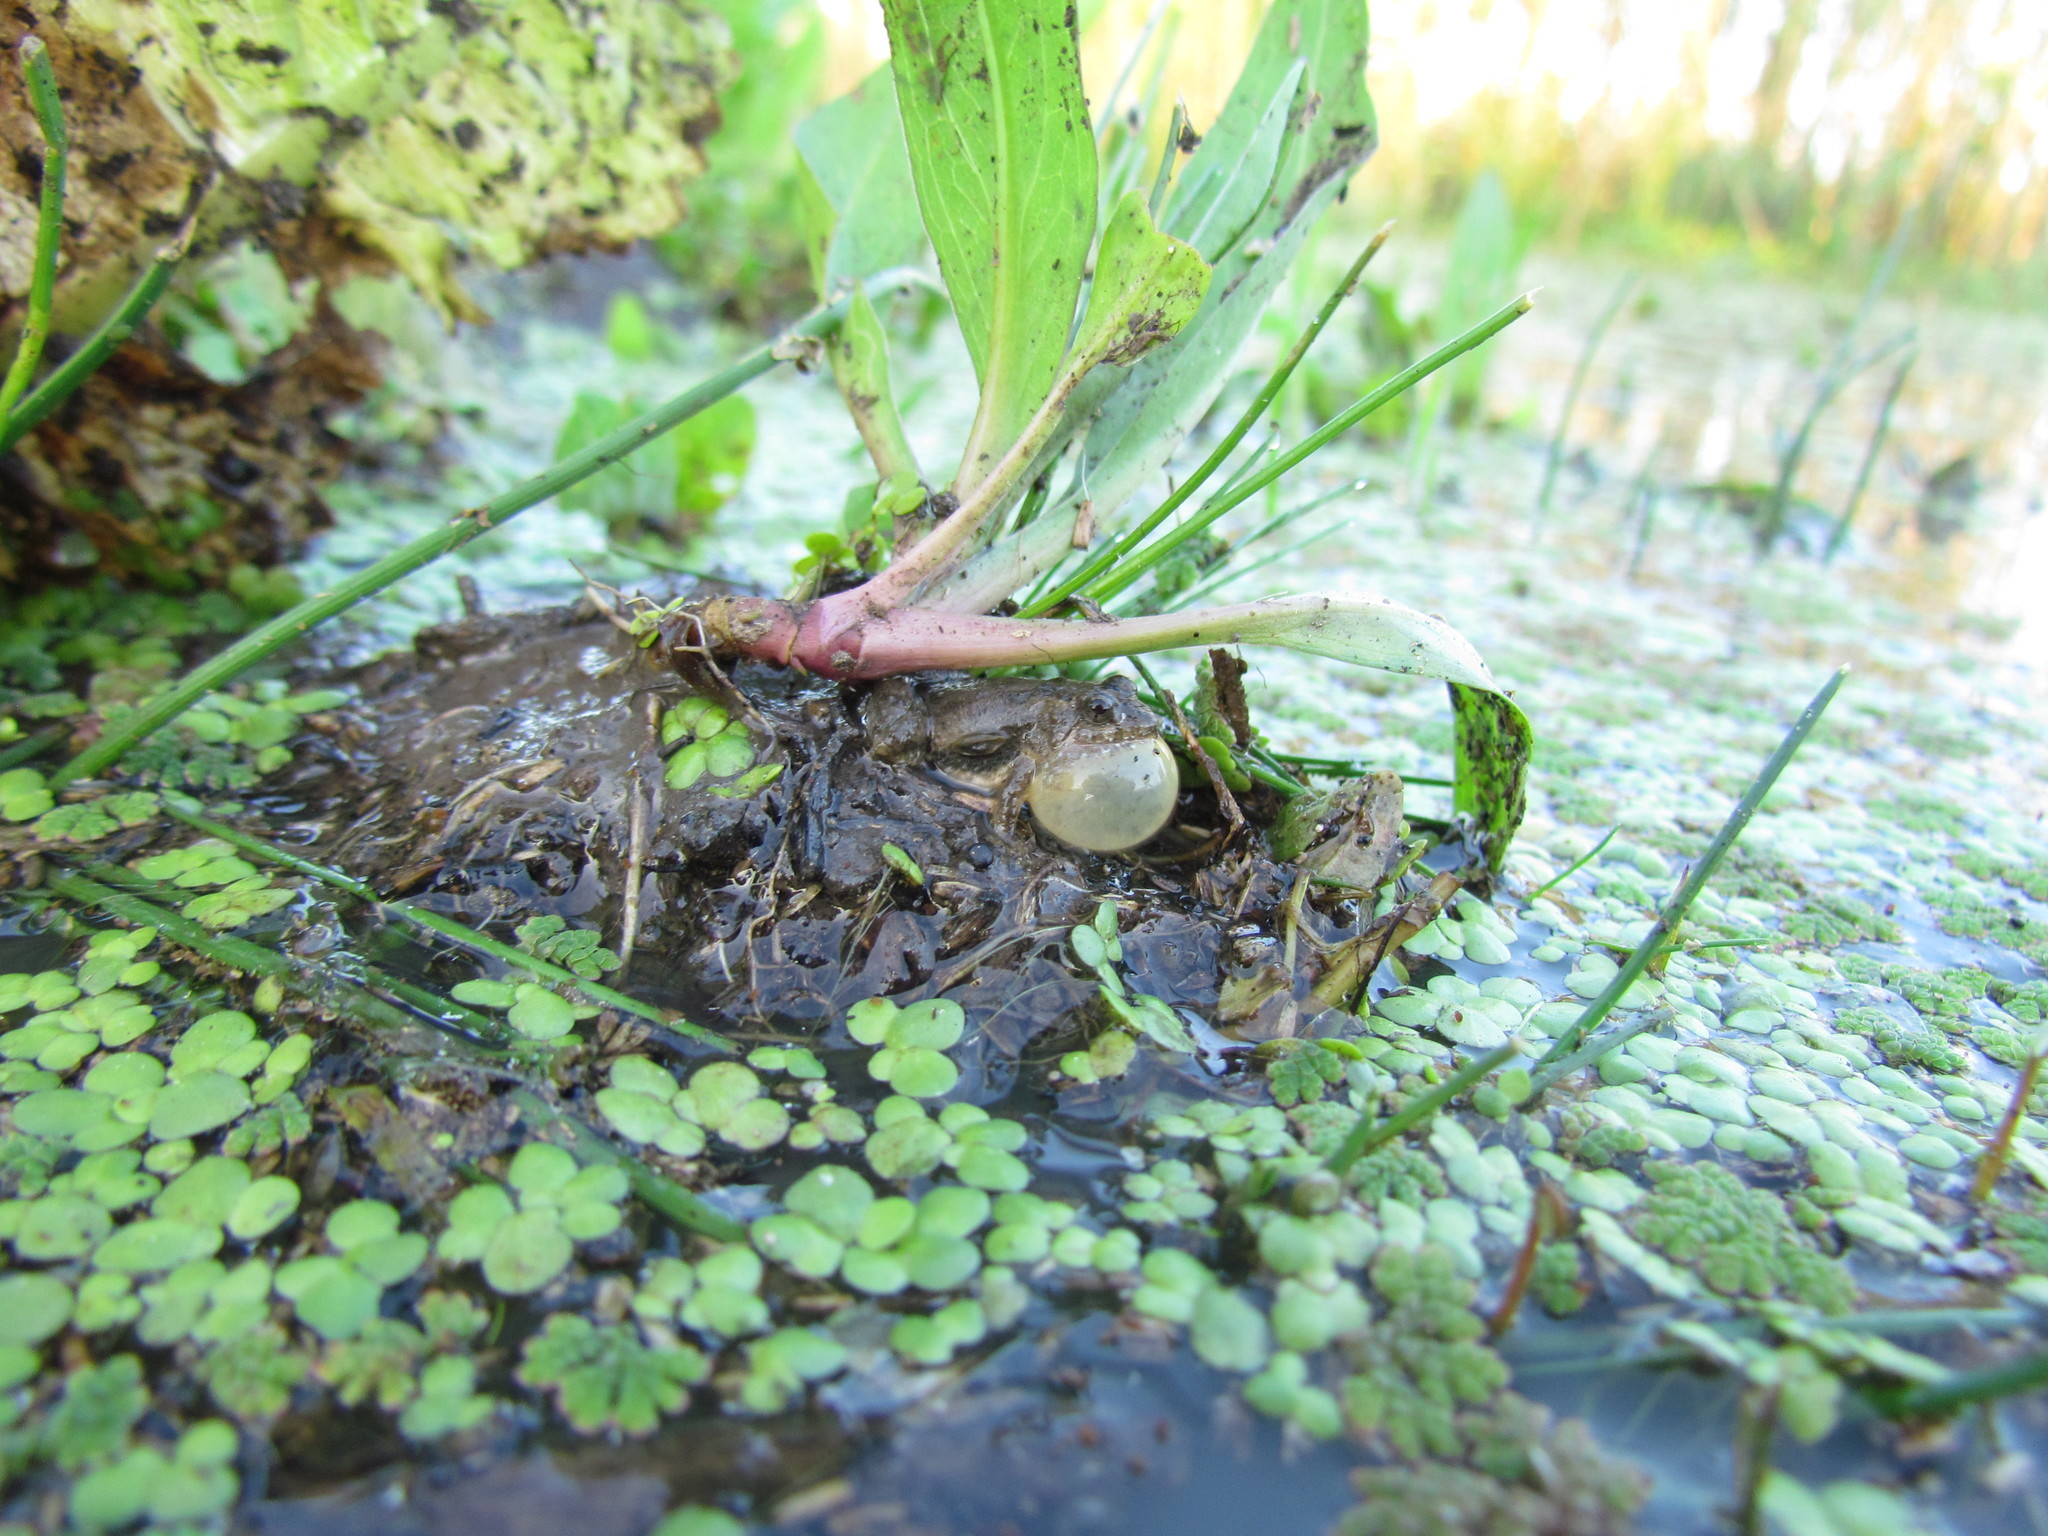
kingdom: Animalia
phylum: Chordata
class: Amphibia
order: Anura
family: Leptodactylidae
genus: Pseudopaludicola
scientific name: Pseudopaludicola falcipes
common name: Hensel’s swamp frog
